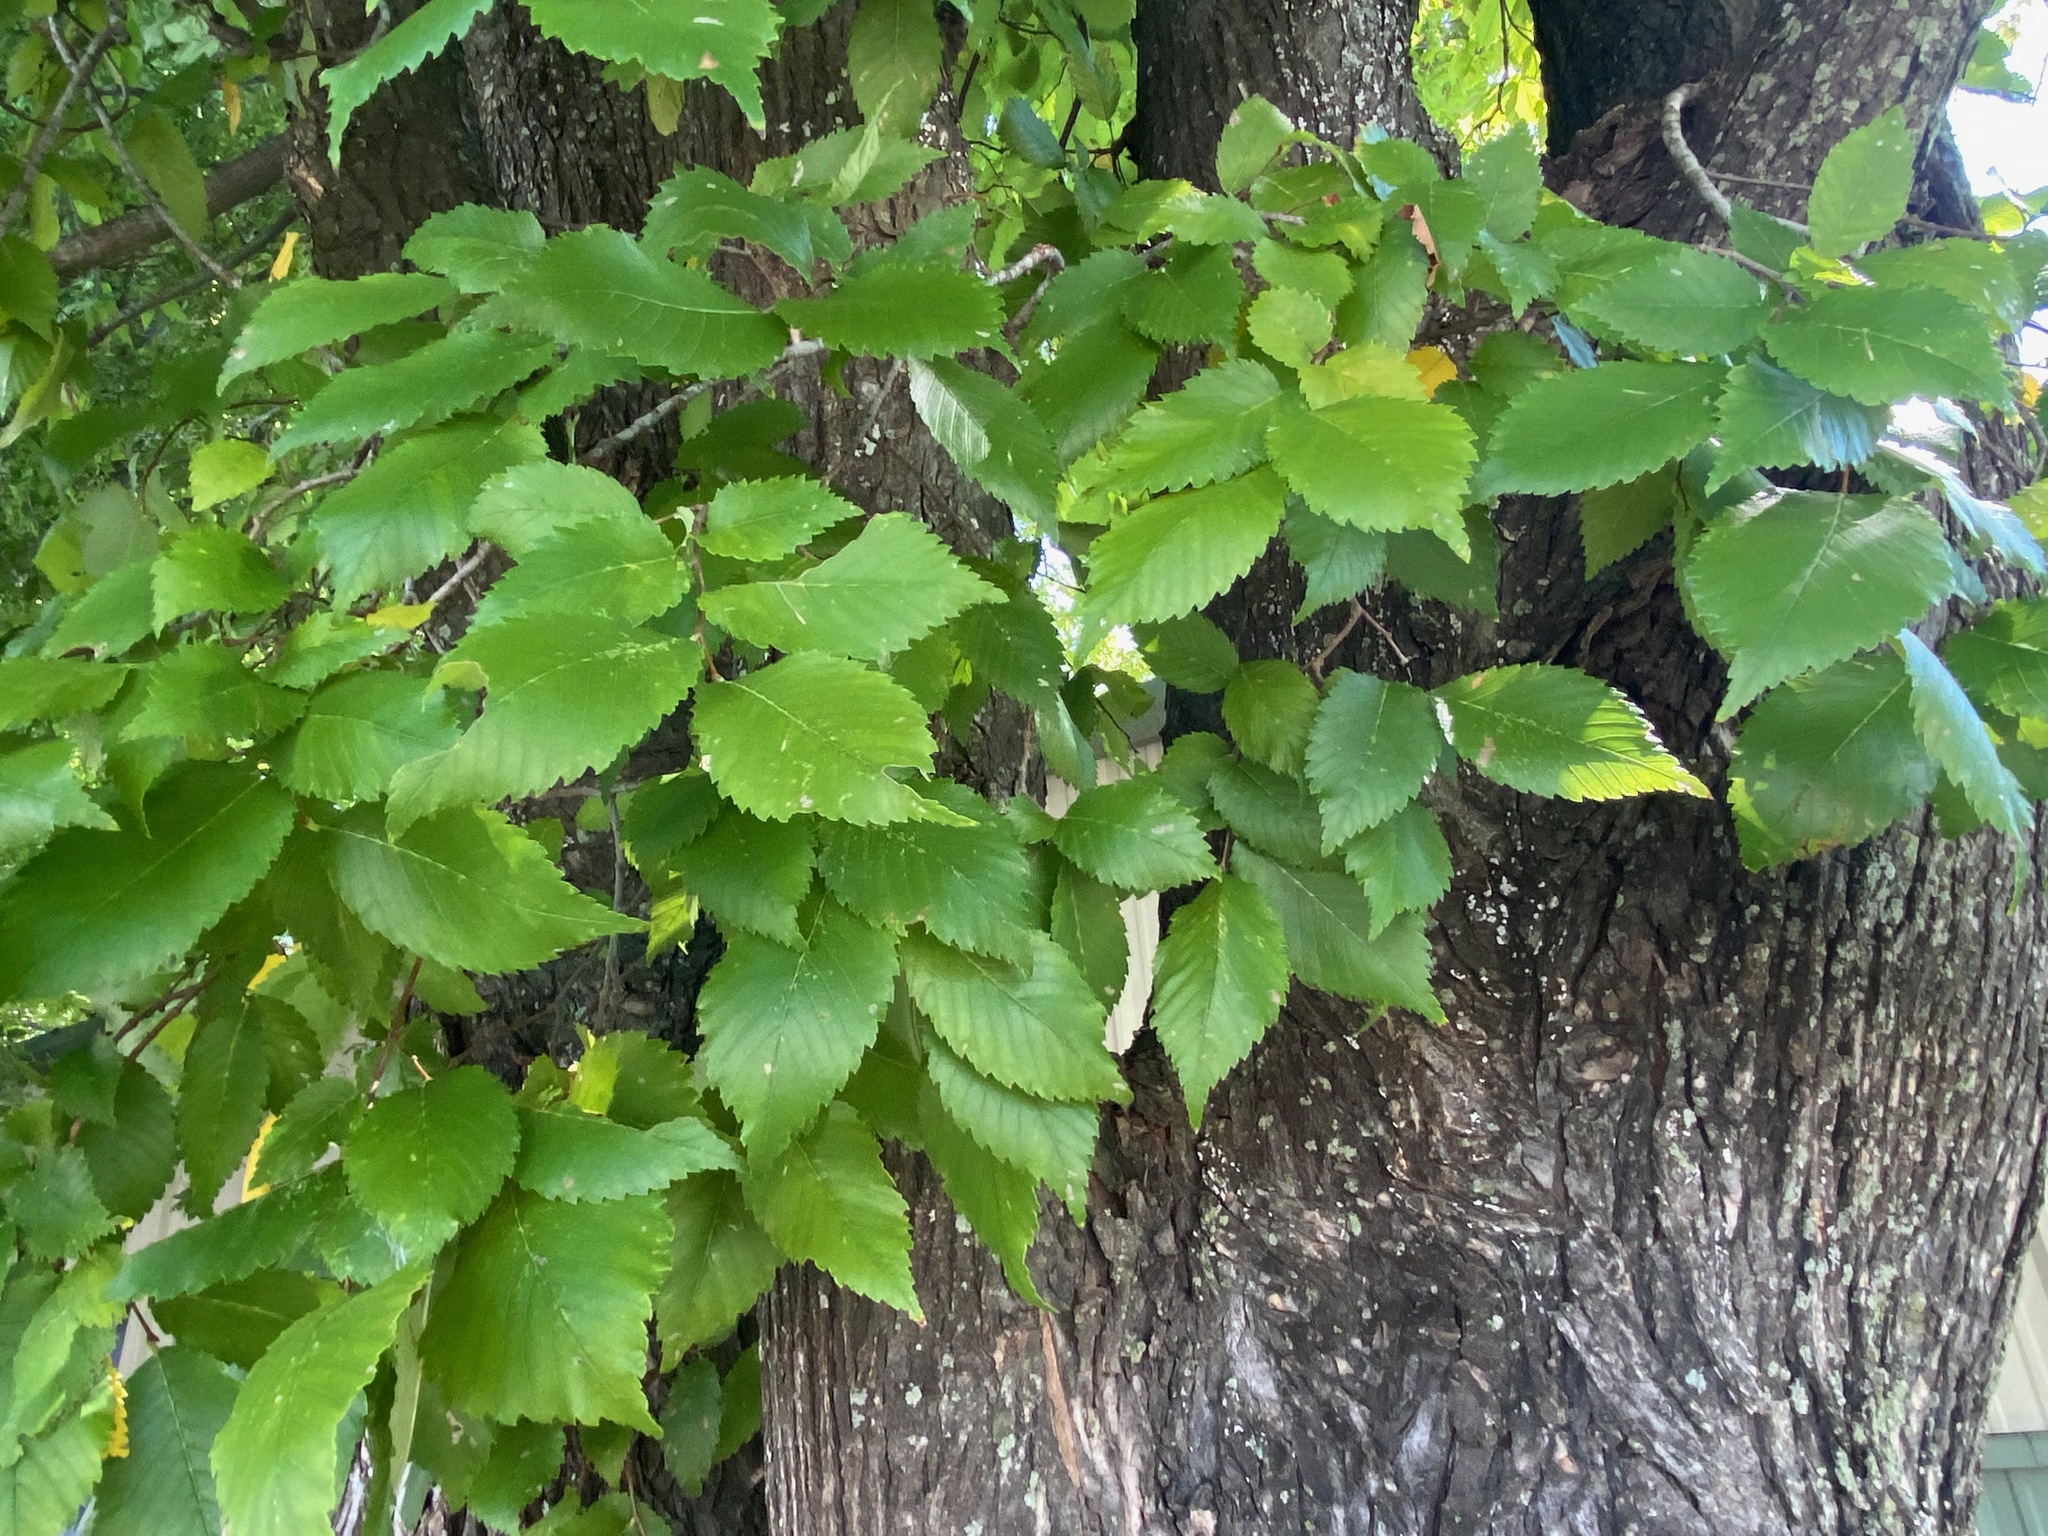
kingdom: Plantae
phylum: Tracheophyta
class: Magnoliopsida
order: Rosales
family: Ulmaceae
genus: Ulmus
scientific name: Ulmus americana
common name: American elm
